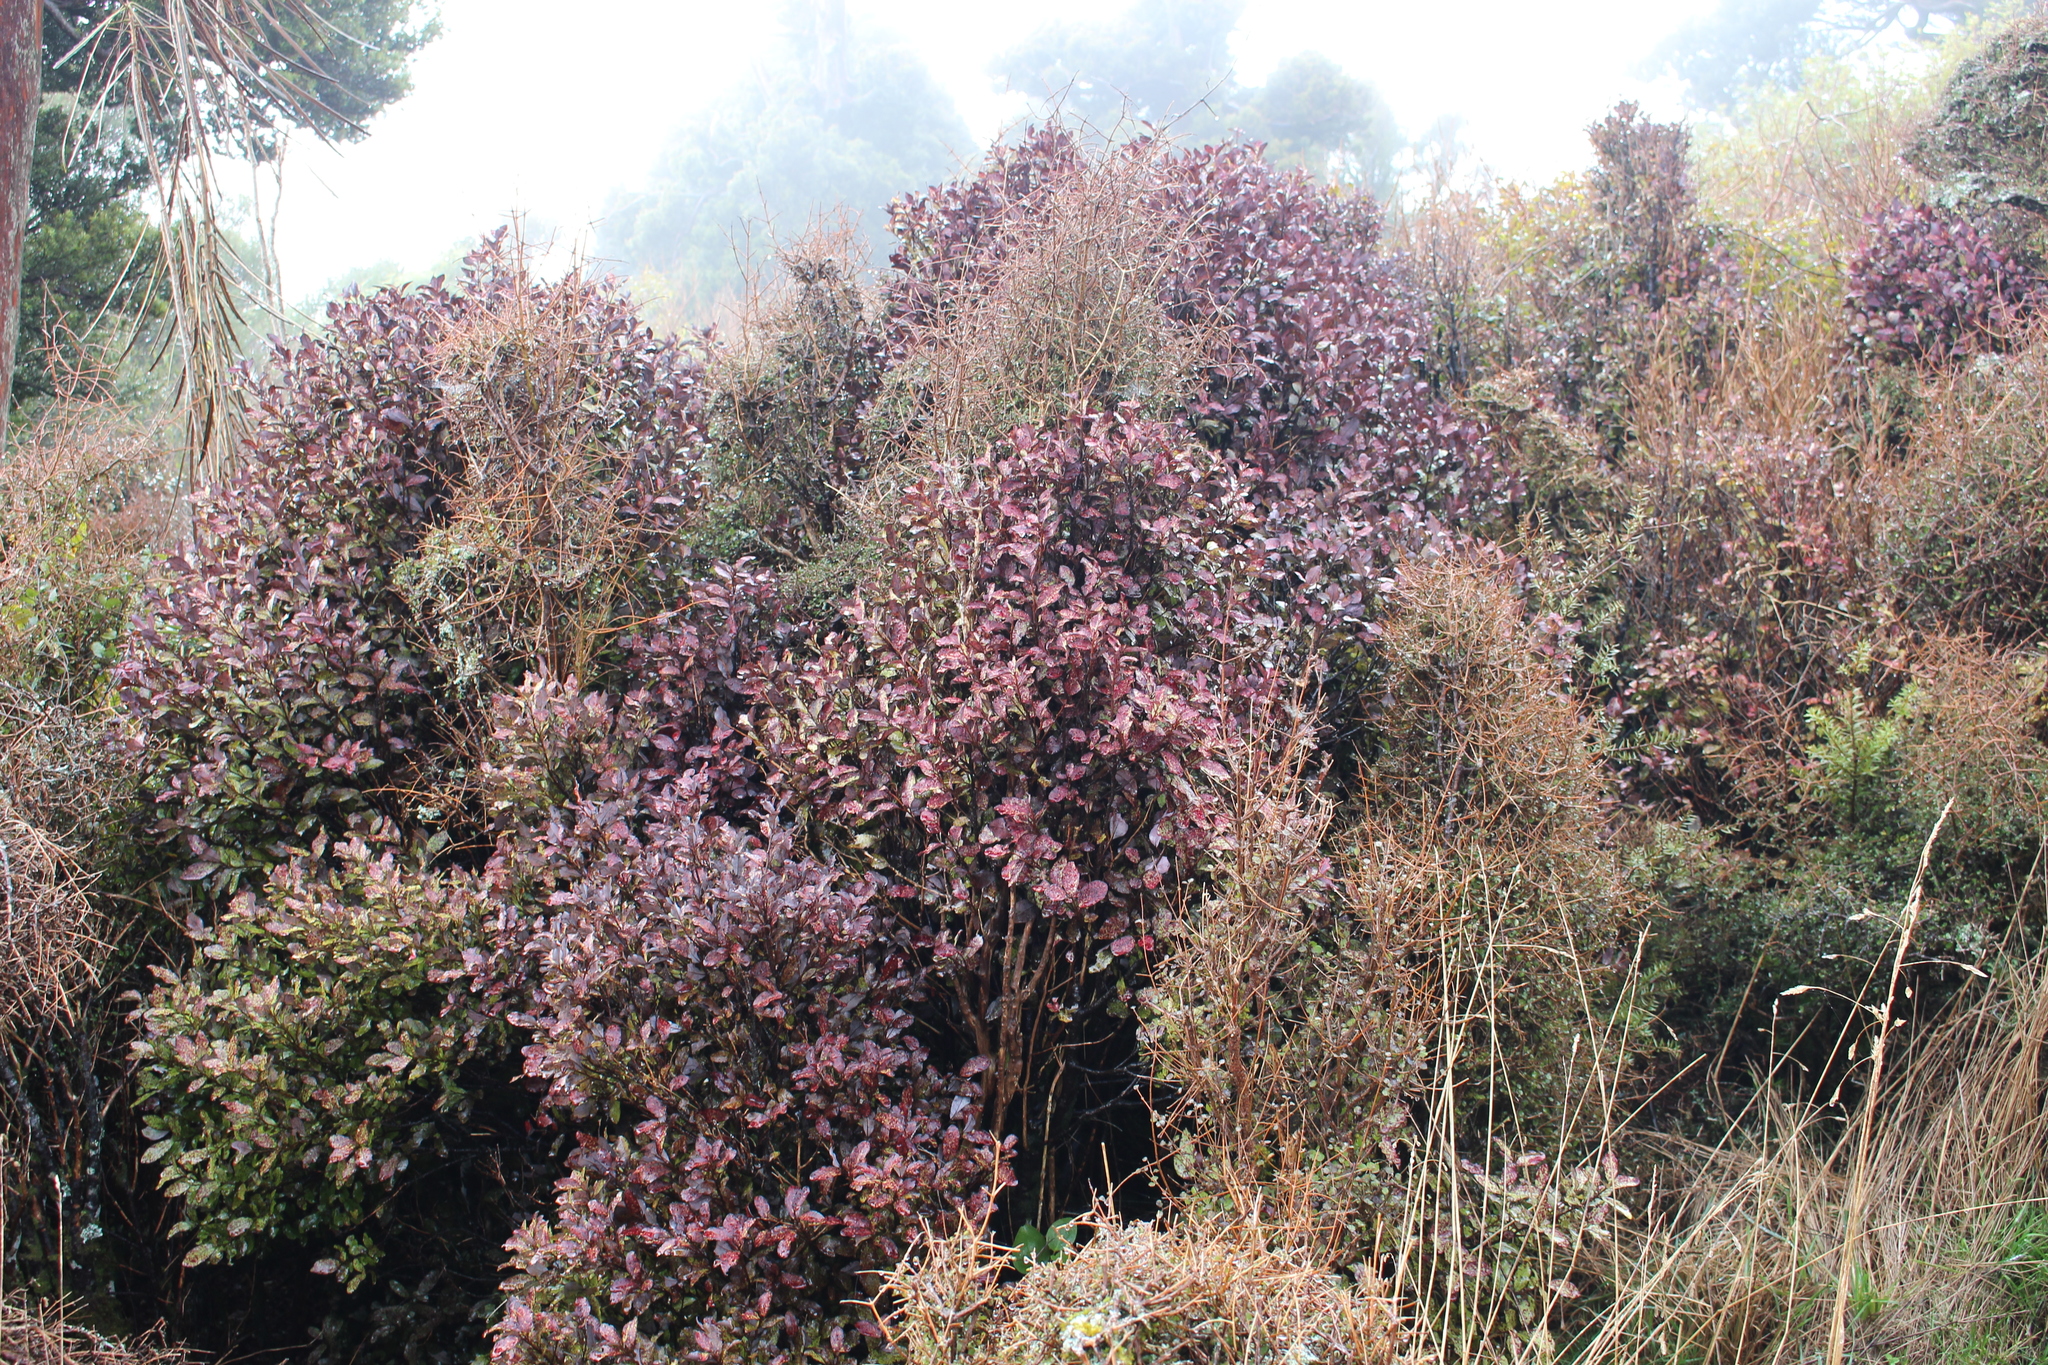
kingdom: Plantae
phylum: Tracheophyta
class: Magnoliopsida
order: Canellales
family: Winteraceae
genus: Pseudowintera
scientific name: Pseudowintera colorata
